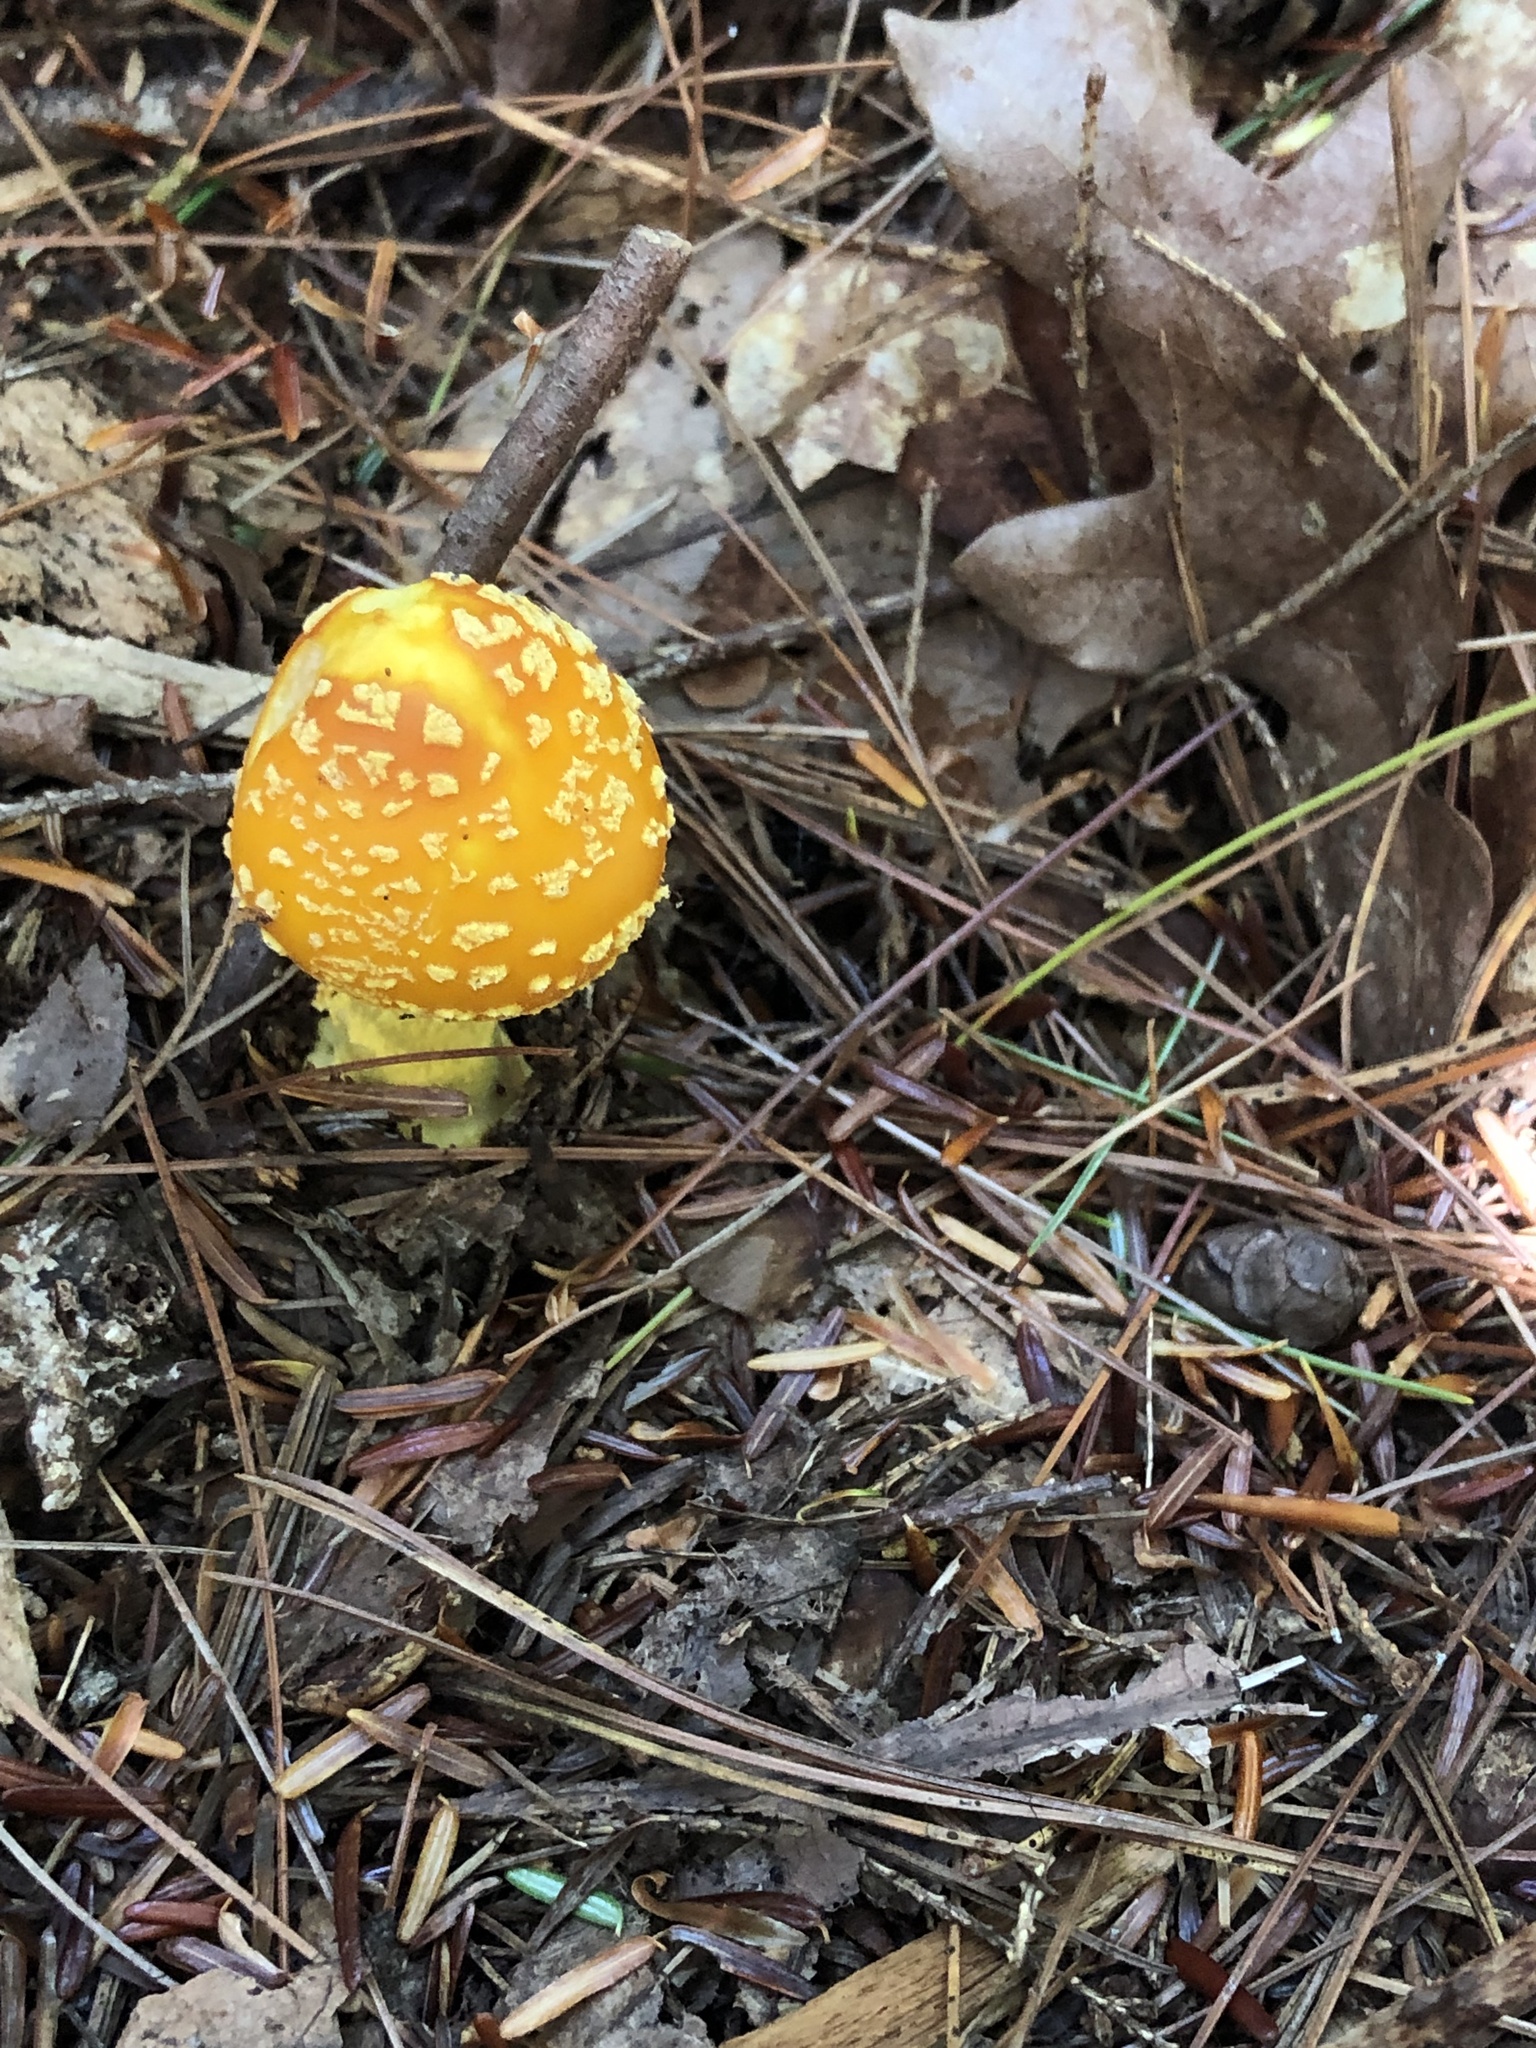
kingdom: Fungi
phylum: Basidiomycota
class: Agaricomycetes
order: Agaricales
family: Amanitaceae
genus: Amanita
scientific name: Amanita flavoconia
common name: Yellow patches
